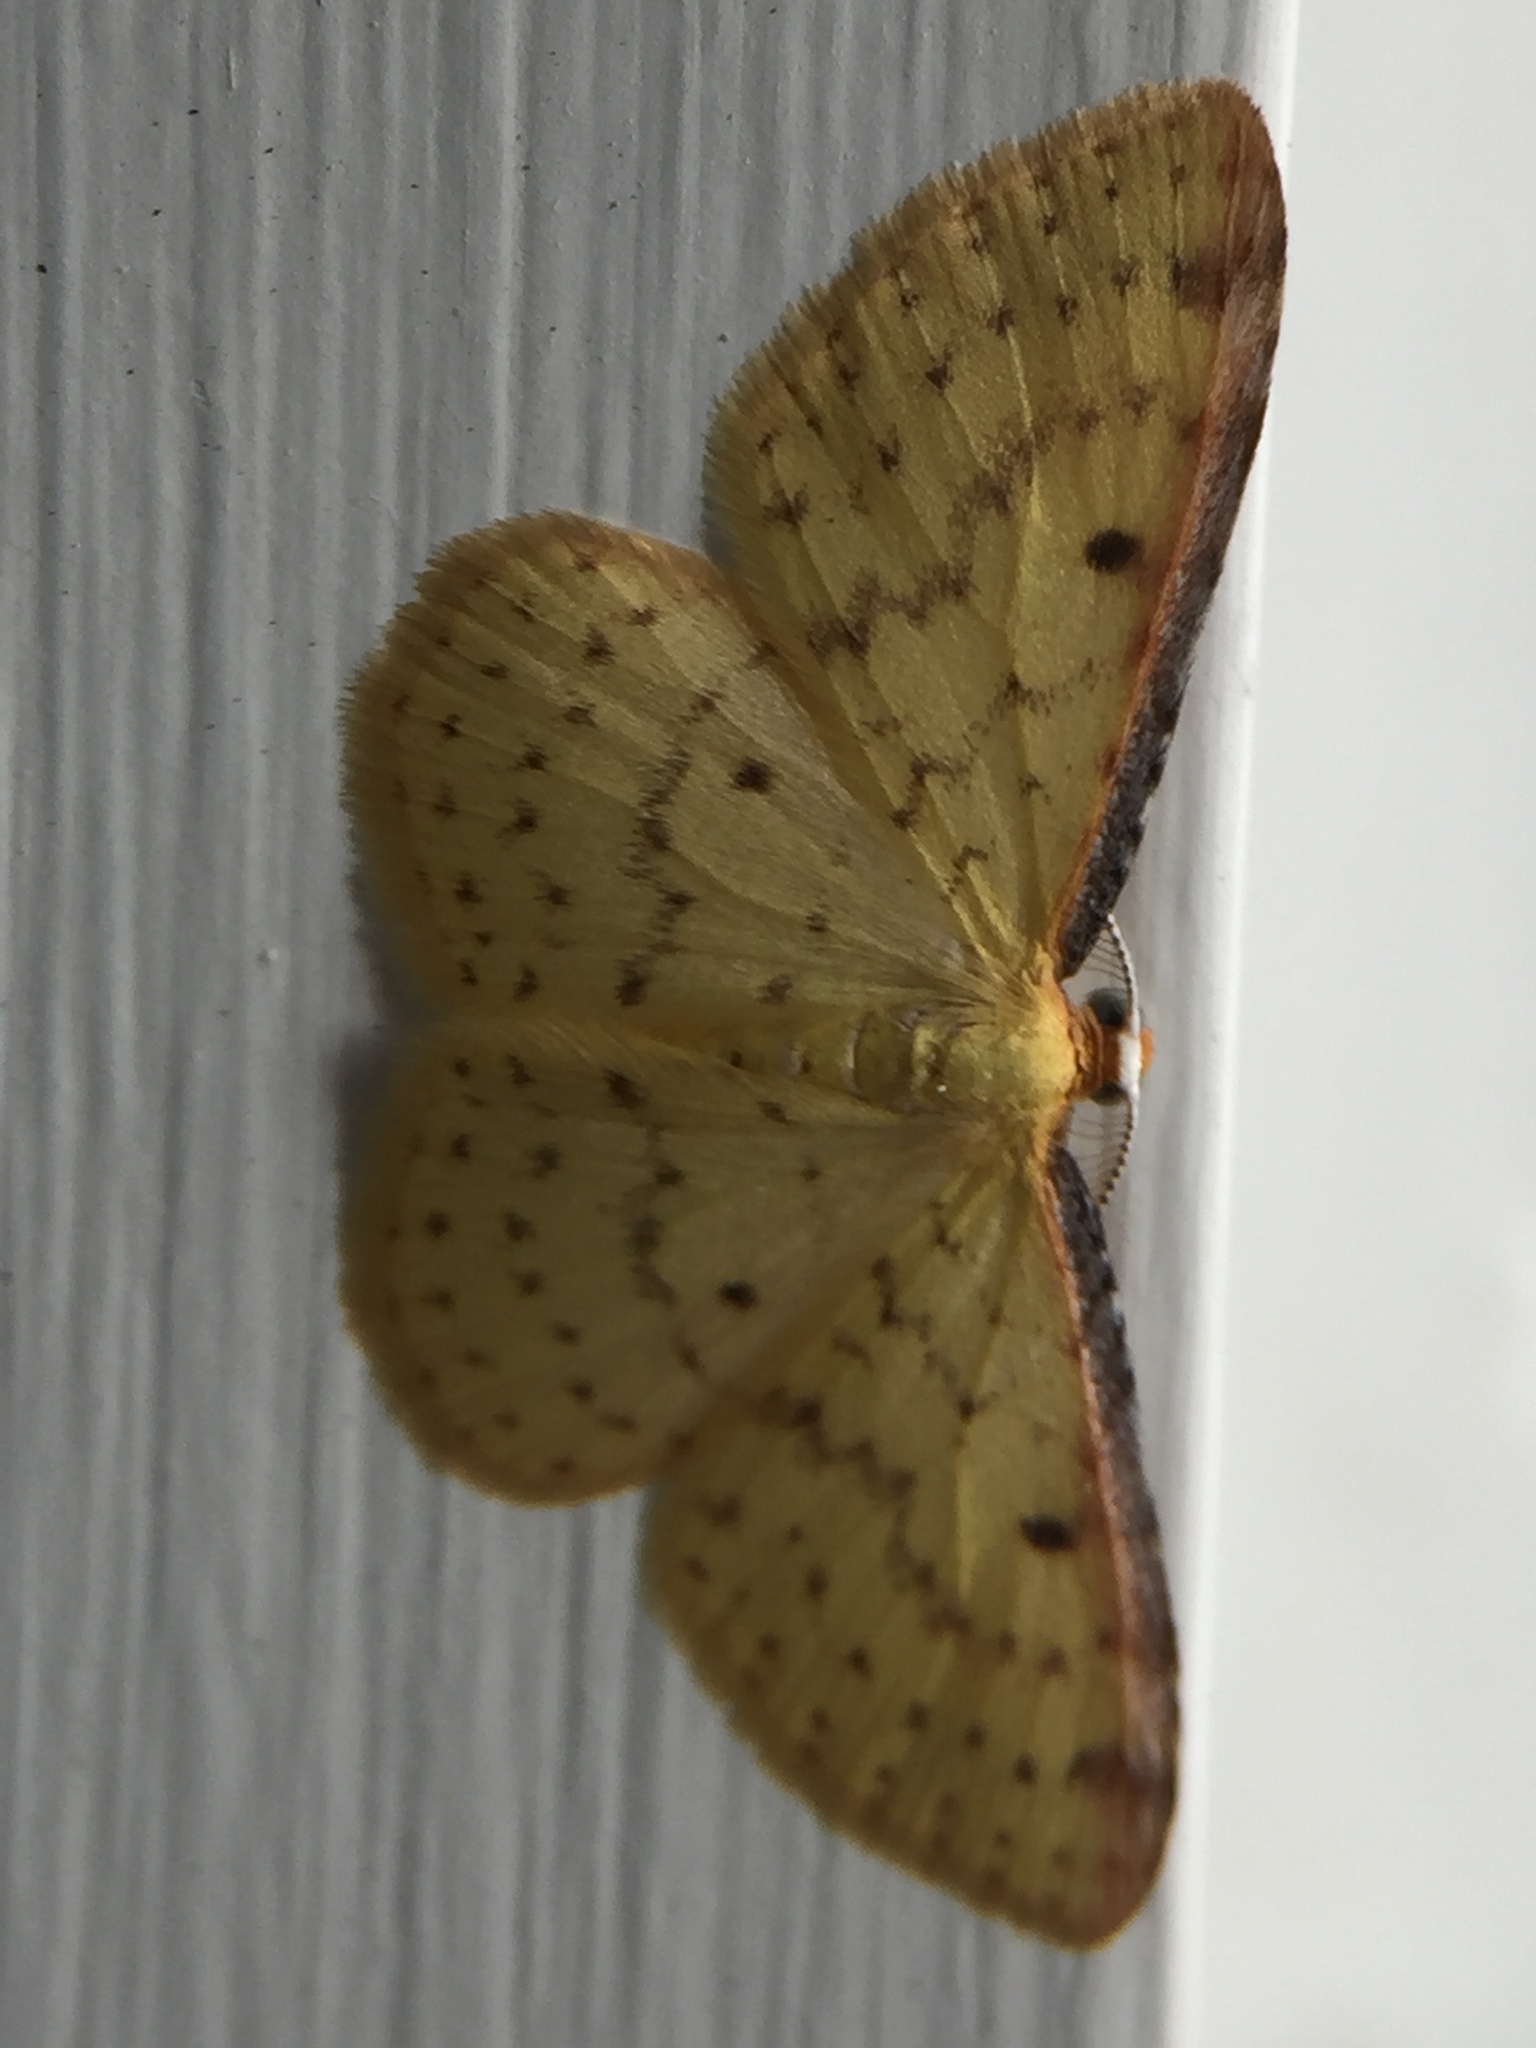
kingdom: Animalia
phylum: Arthropoda
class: Insecta
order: Lepidoptera
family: Geometridae
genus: Epiphryne
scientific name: Epiphryne undosata
